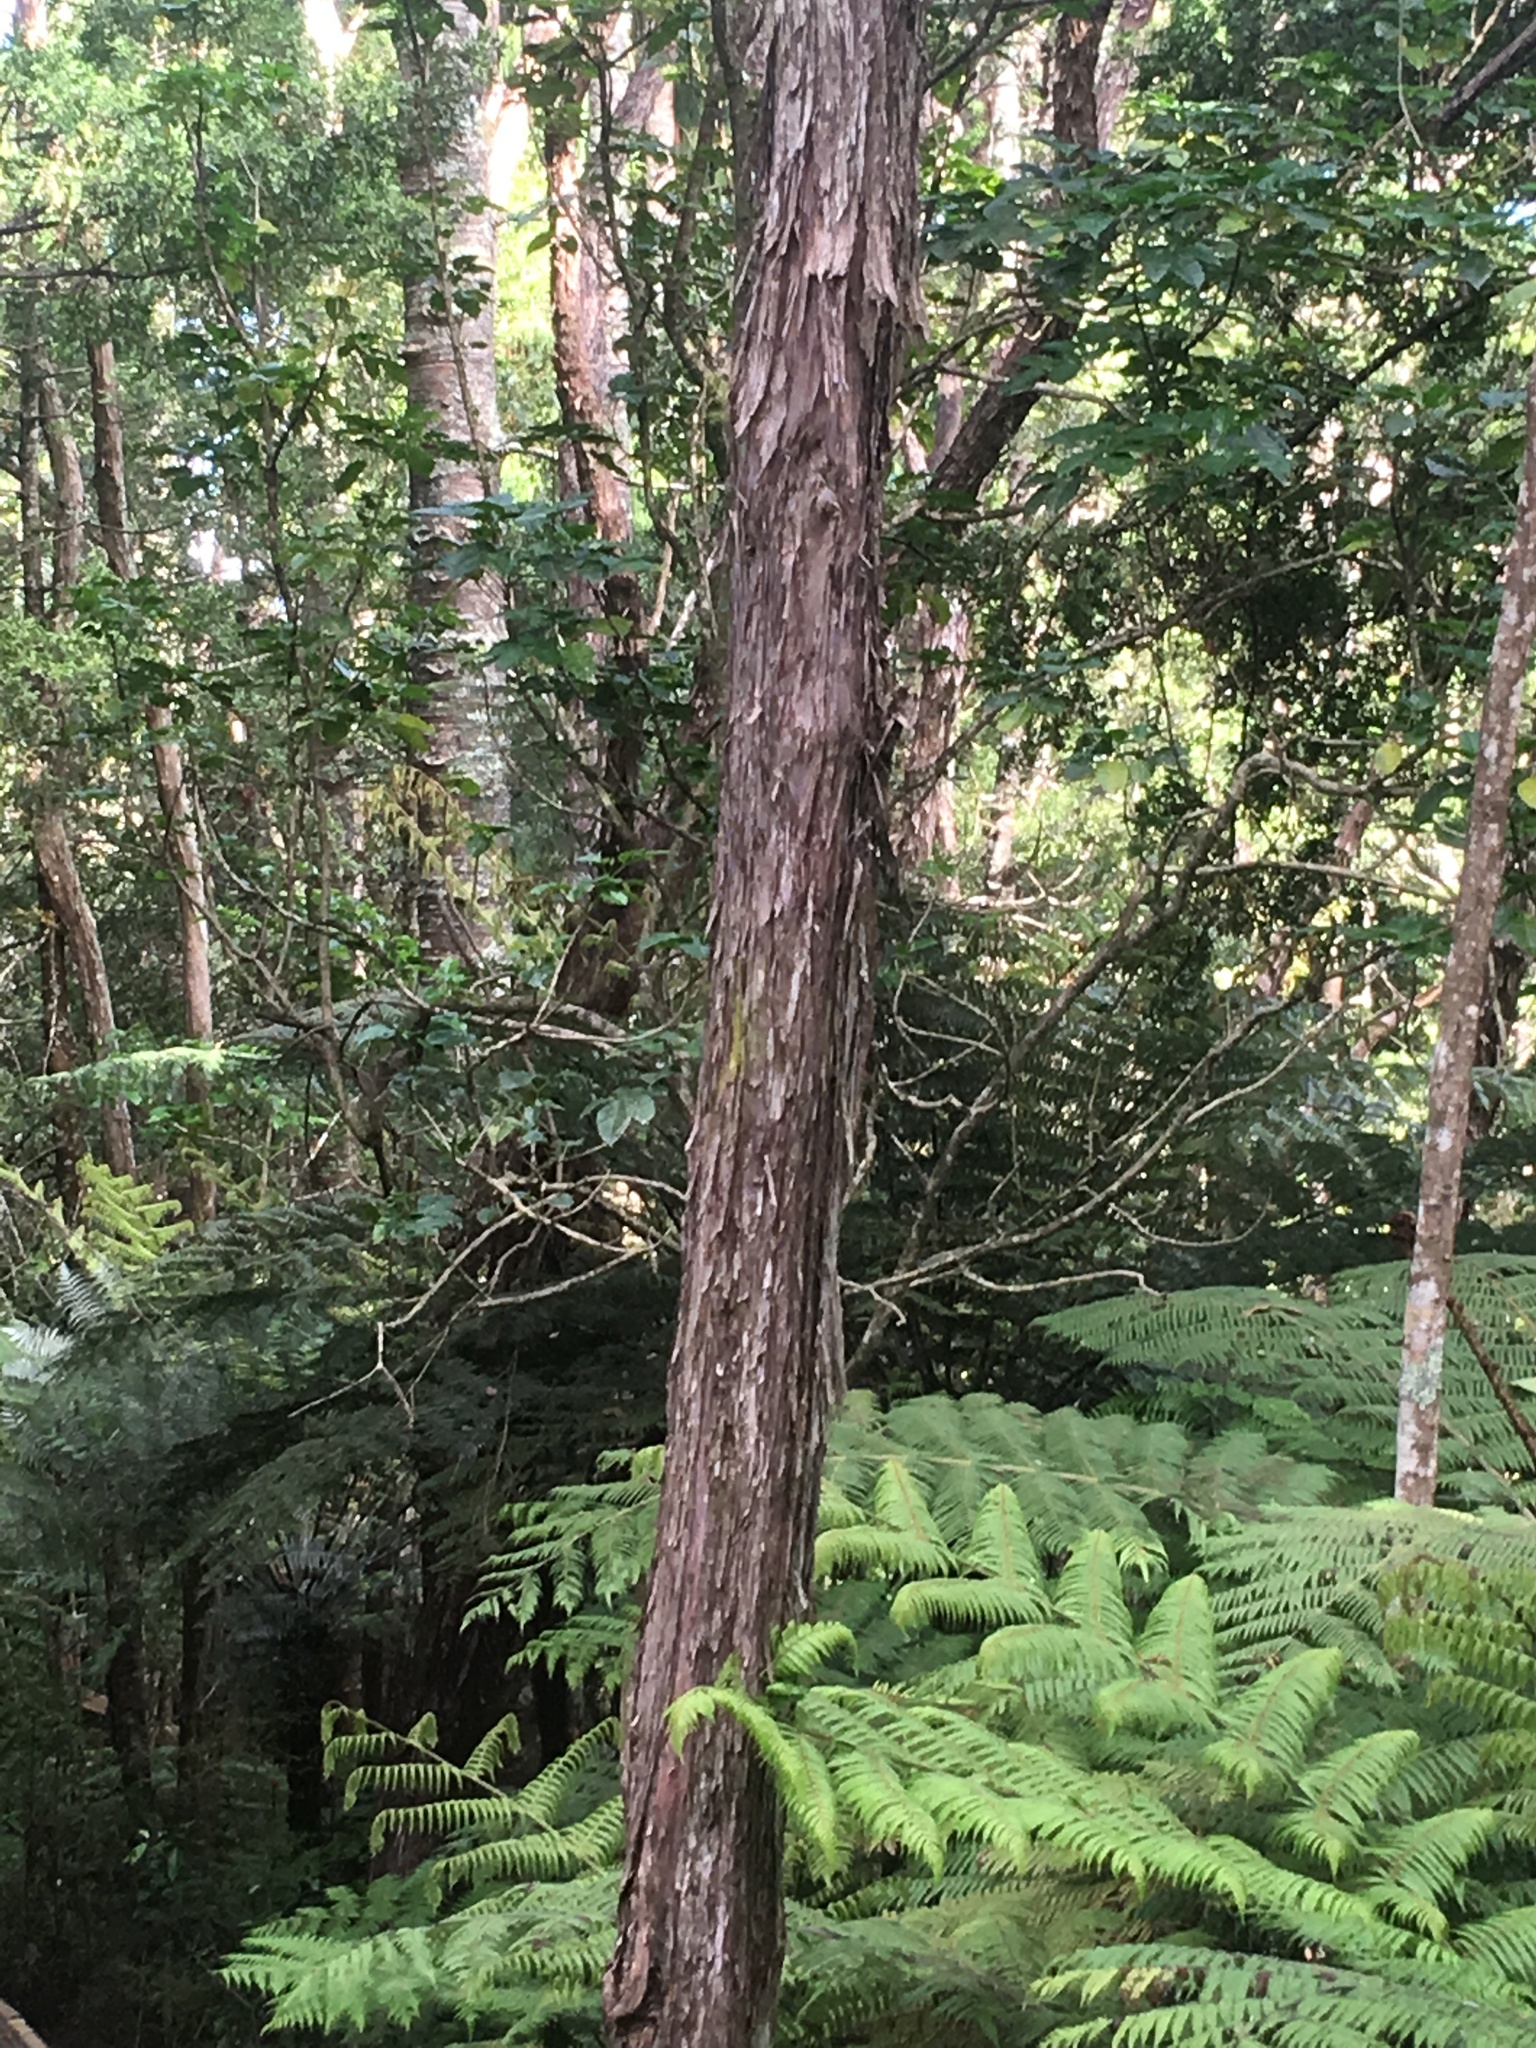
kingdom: Plantae
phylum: Tracheophyta
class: Pinopsida
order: Pinales
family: Araucariaceae
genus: Agathis
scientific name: Agathis australis
